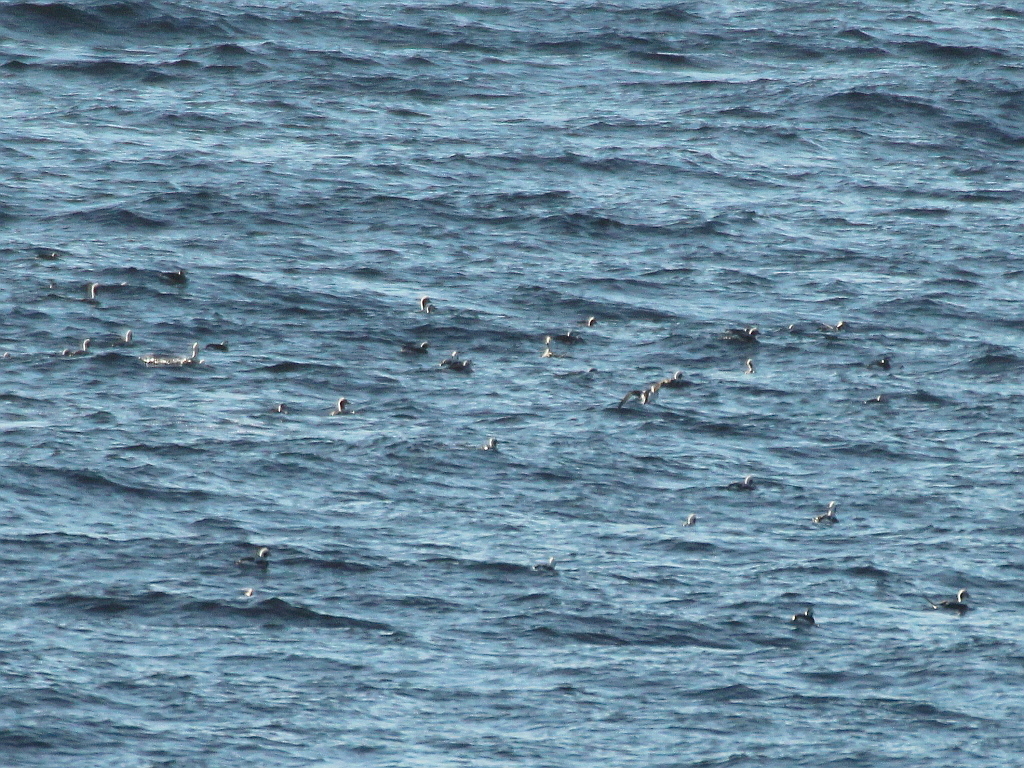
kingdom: Animalia
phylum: Chordata
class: Aves
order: Anseriformes
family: Anatidae
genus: Clangula
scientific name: Clangula hyemalis
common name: Long-tailed duck
